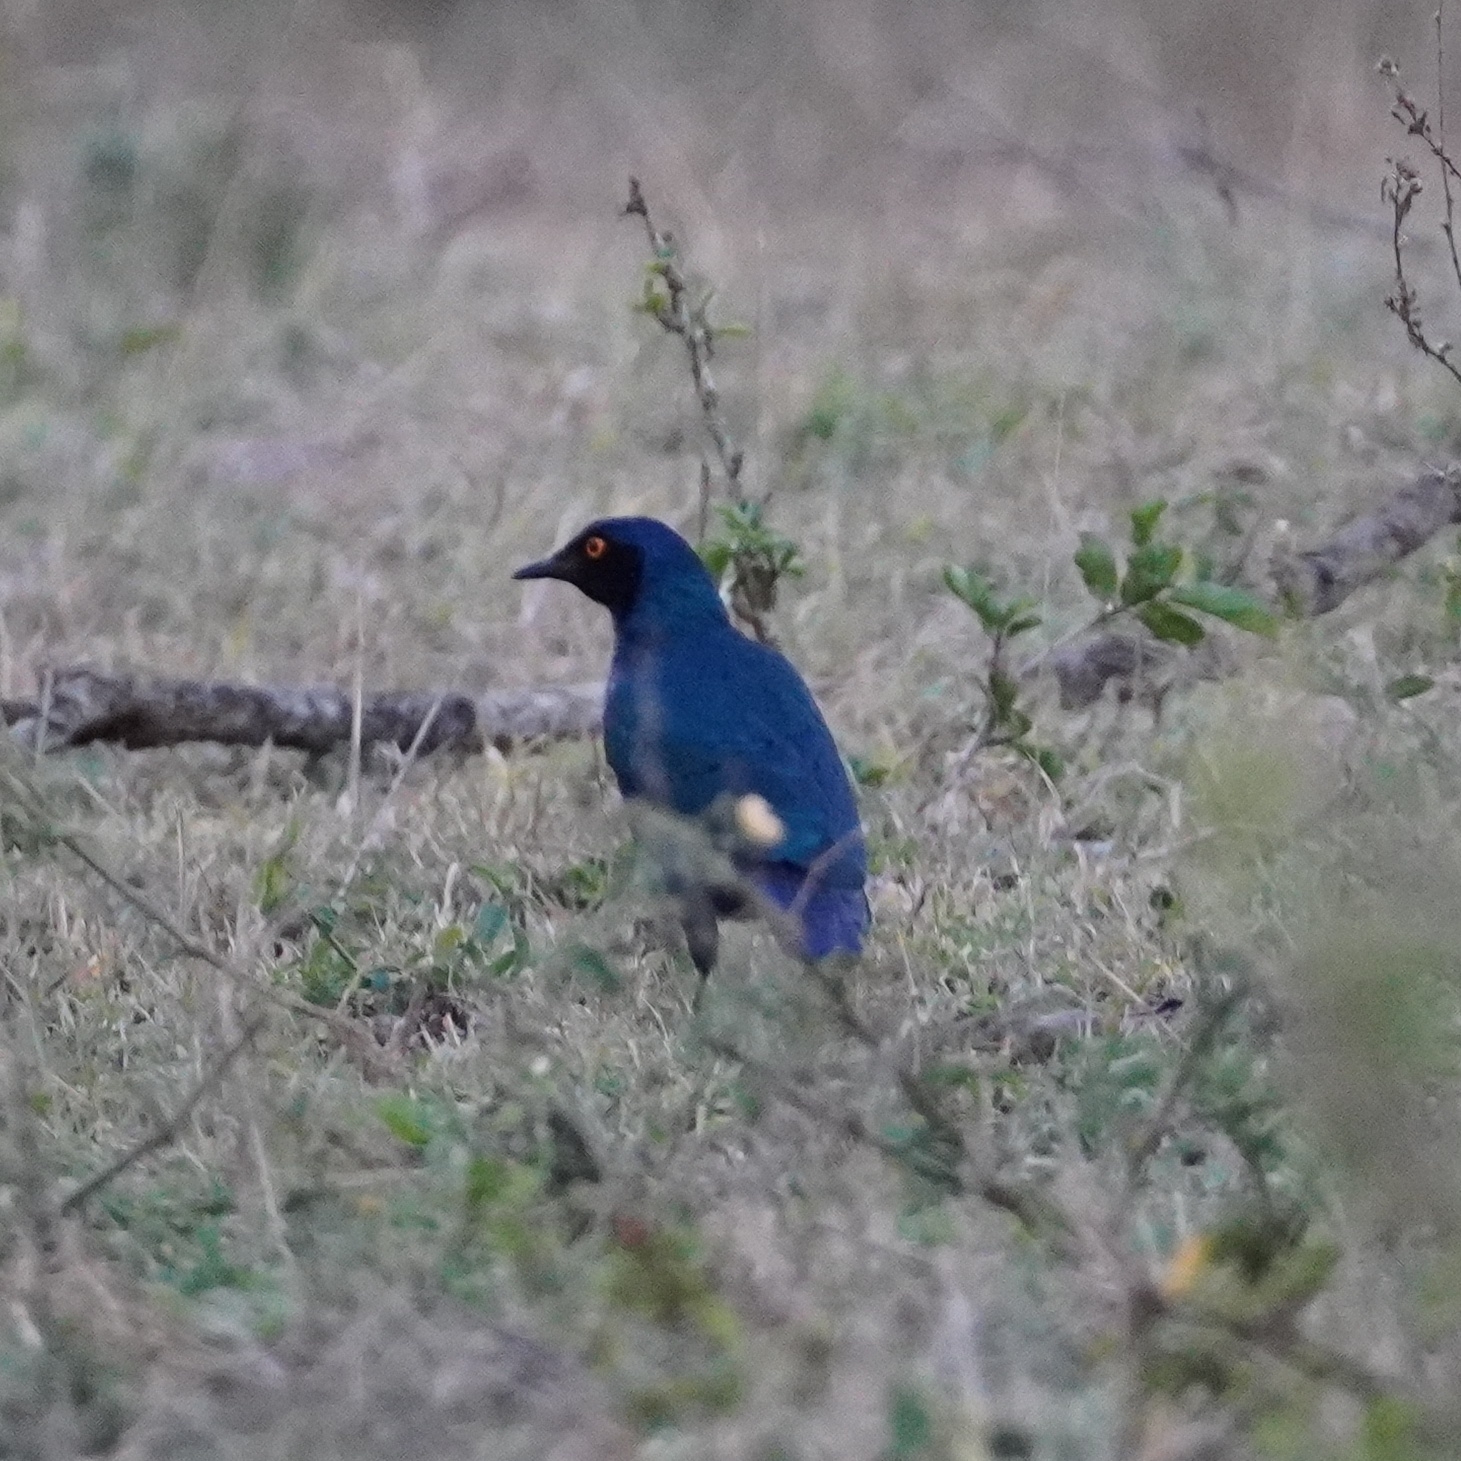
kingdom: Animalia
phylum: Chordata
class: Aves
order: Passeriformes
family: Sturnidae
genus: Lamprotornis
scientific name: Lamprotornis nitens
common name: Cape starling
